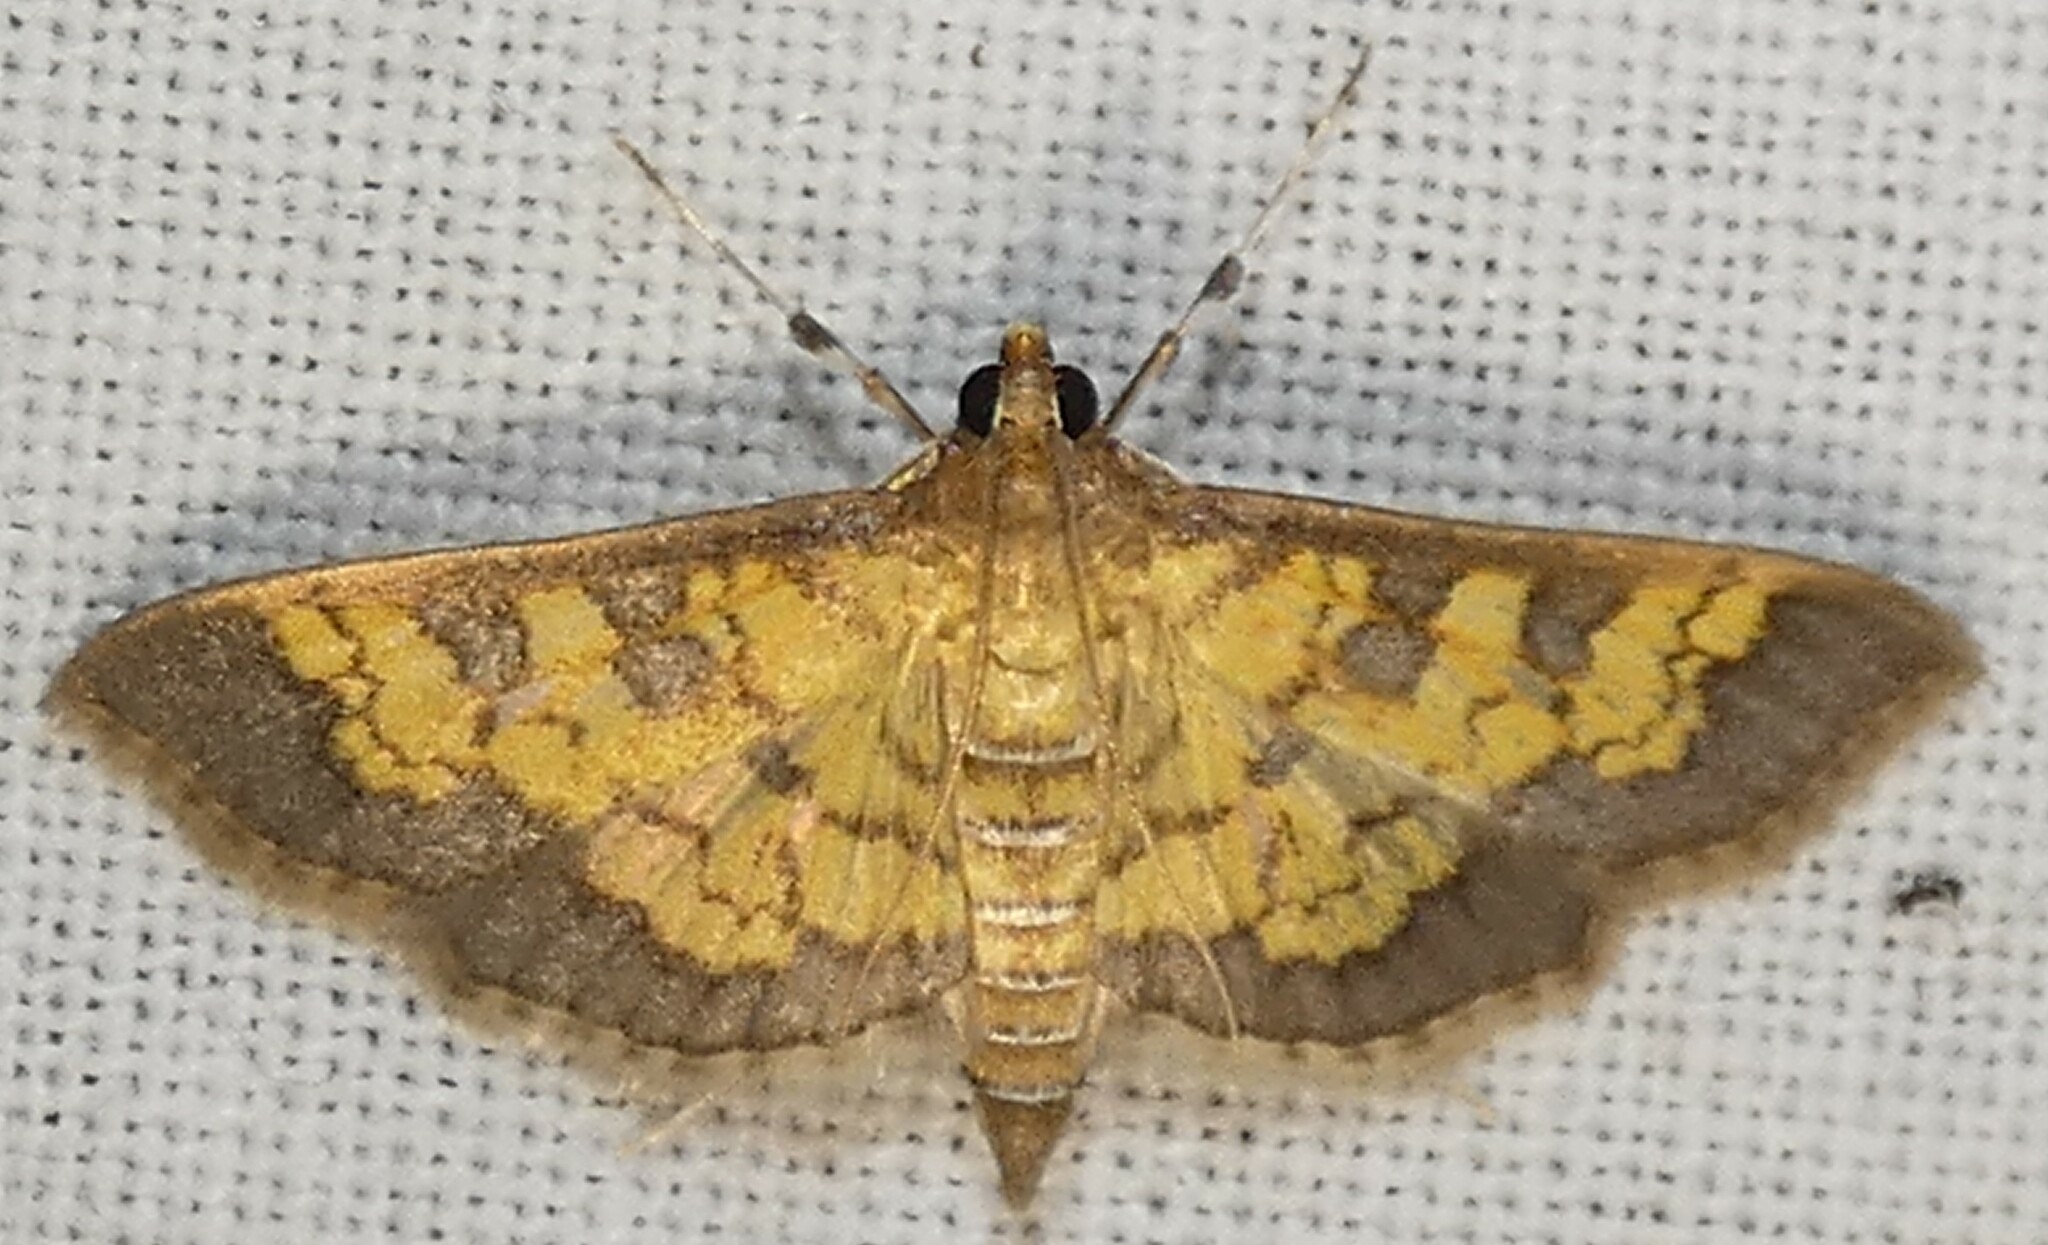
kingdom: Animalia
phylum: Arthropoda
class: Insecta
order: Lepidoptera
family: Crambidae
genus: Epipagis
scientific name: Epipagis adipaloides
